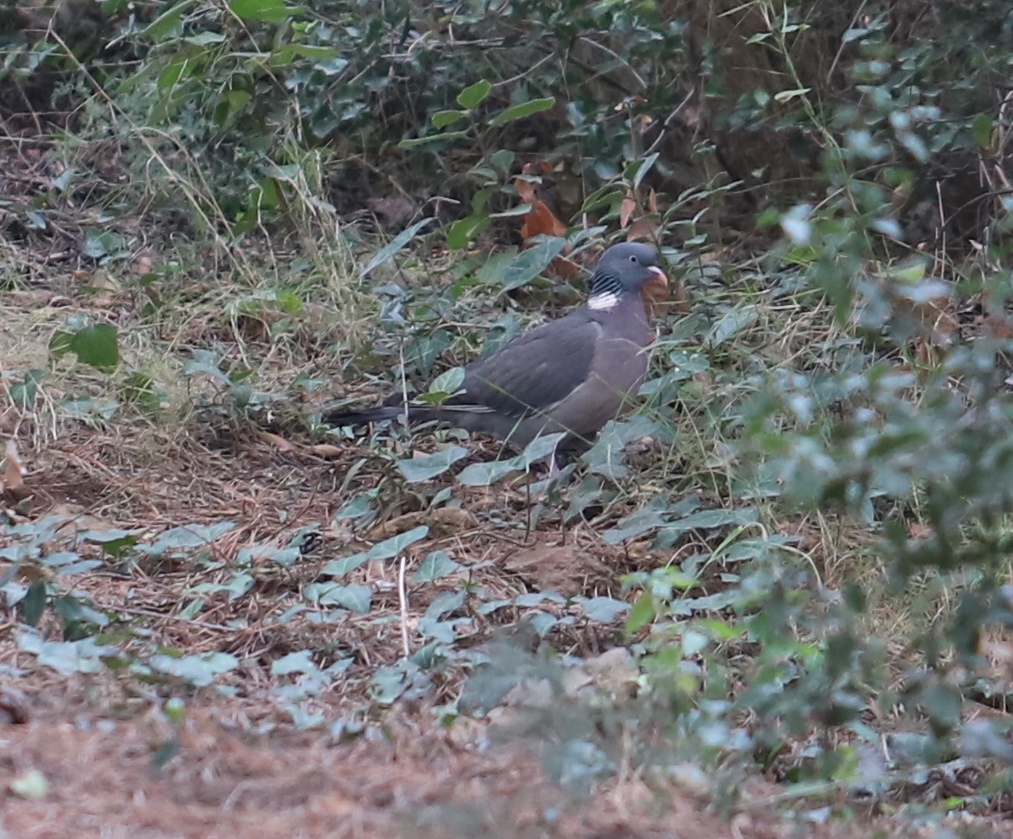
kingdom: Animalia
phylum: Chordata
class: Aves
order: Columbiformes
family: Columbidae
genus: Columba
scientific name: Columba palumbus
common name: Common wood pigeon
